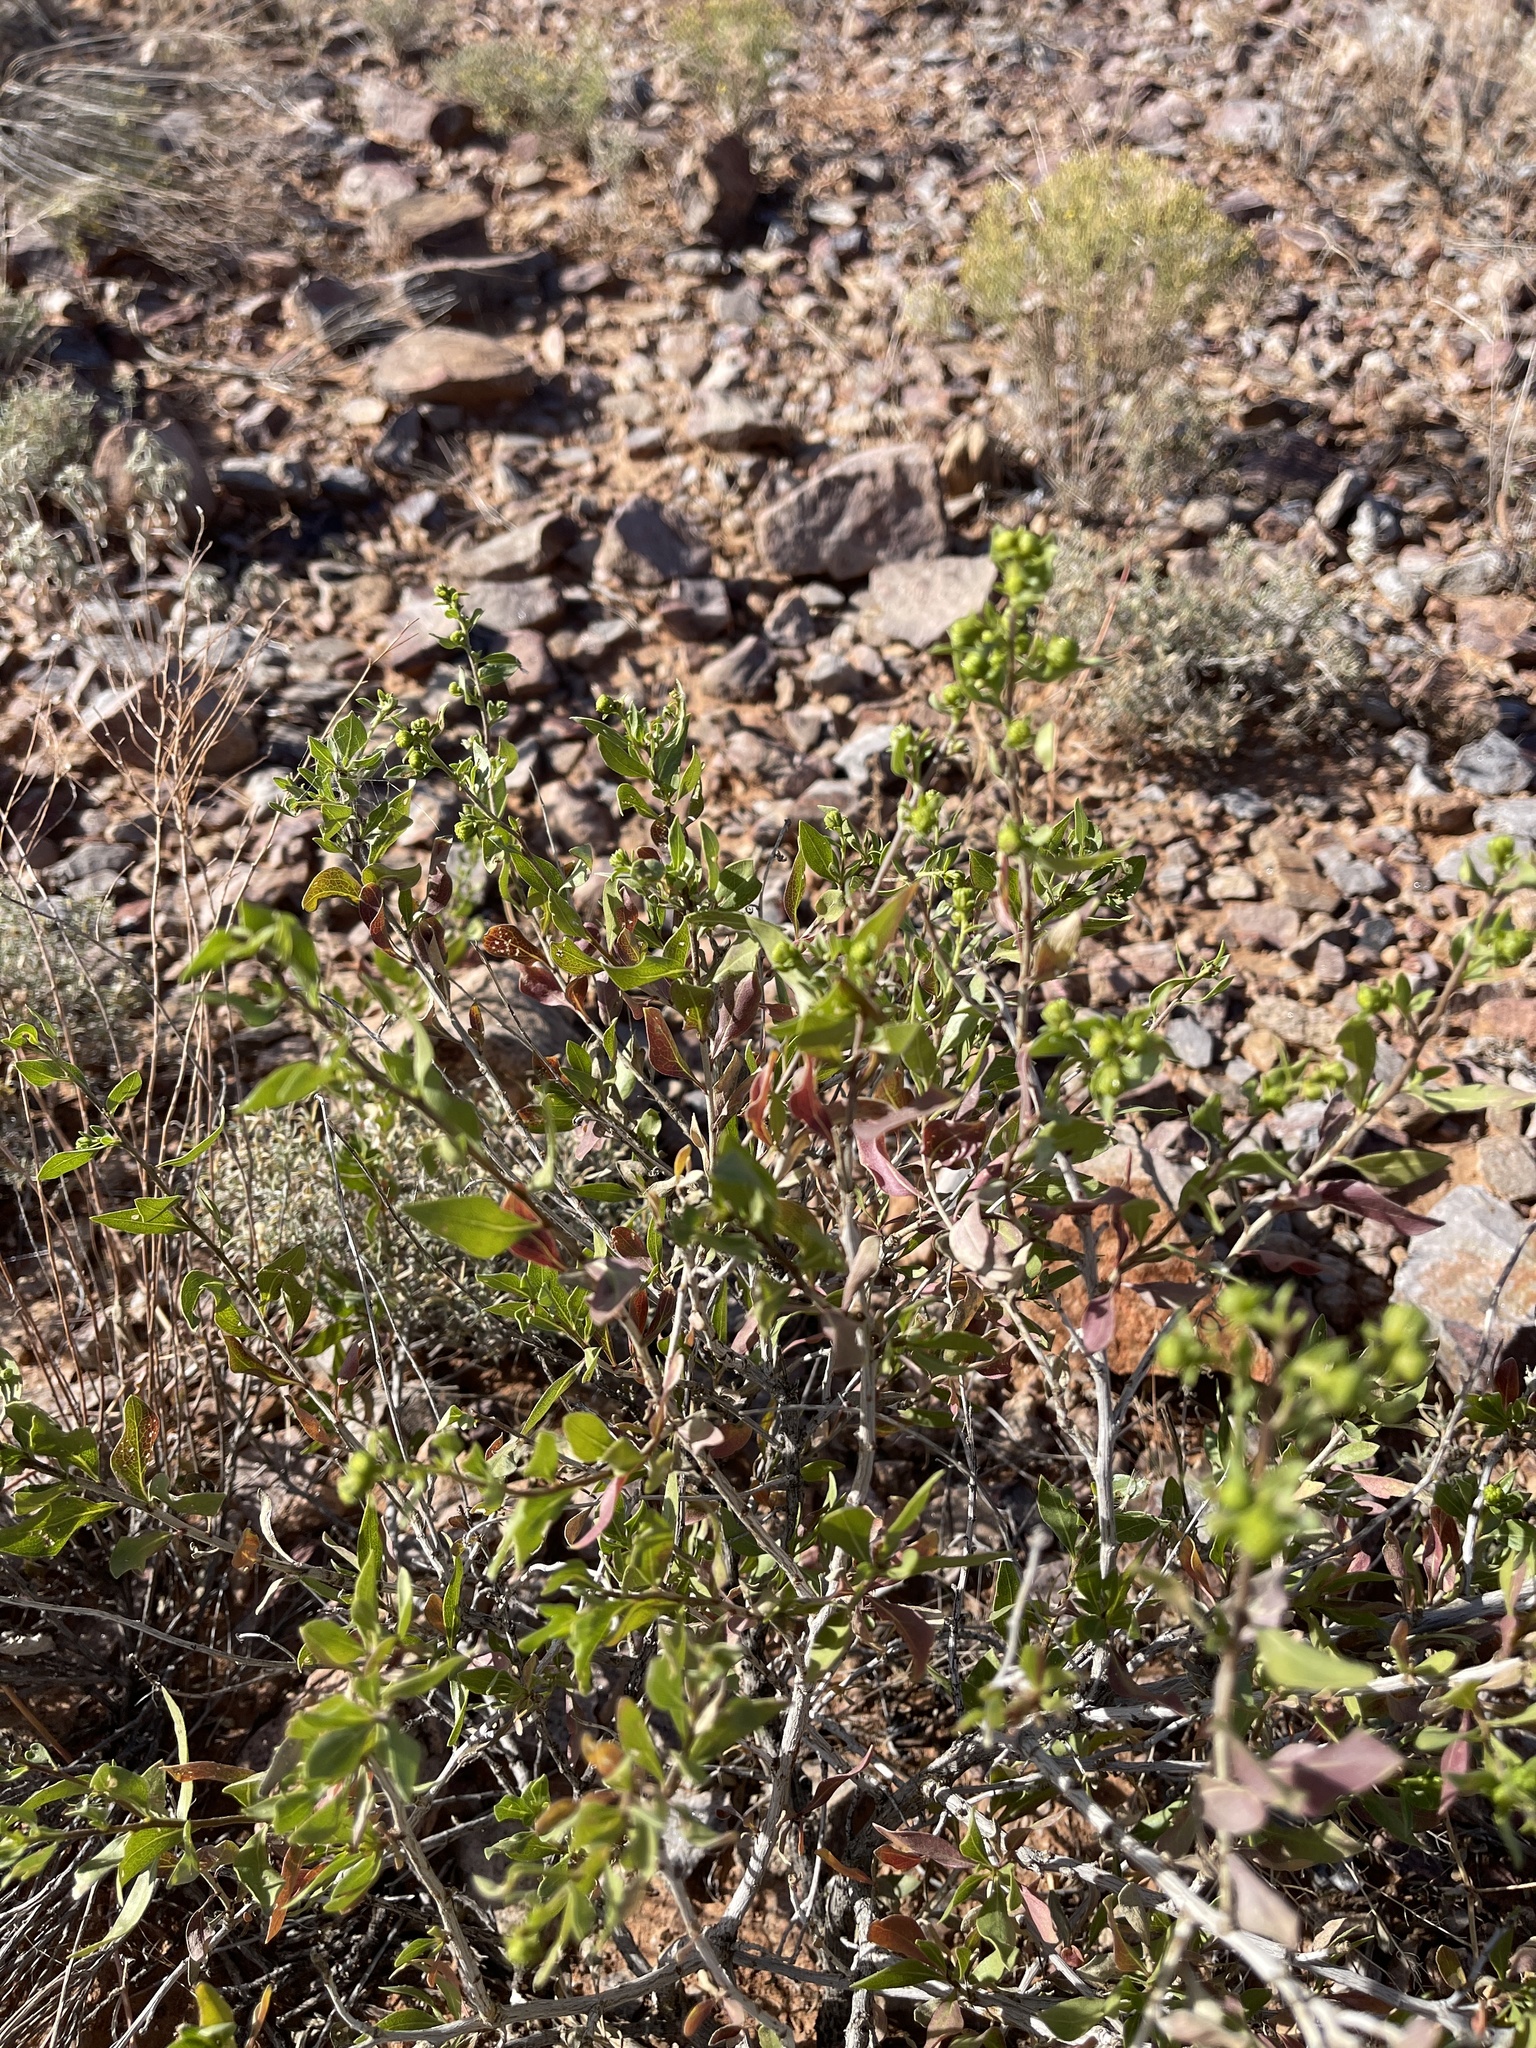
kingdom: Plantae
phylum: Tracheophyta
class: Magnoliopsida
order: Asterales
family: Asteraceae
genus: Flourensia
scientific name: Flourensia cernua
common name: Varnishbush
